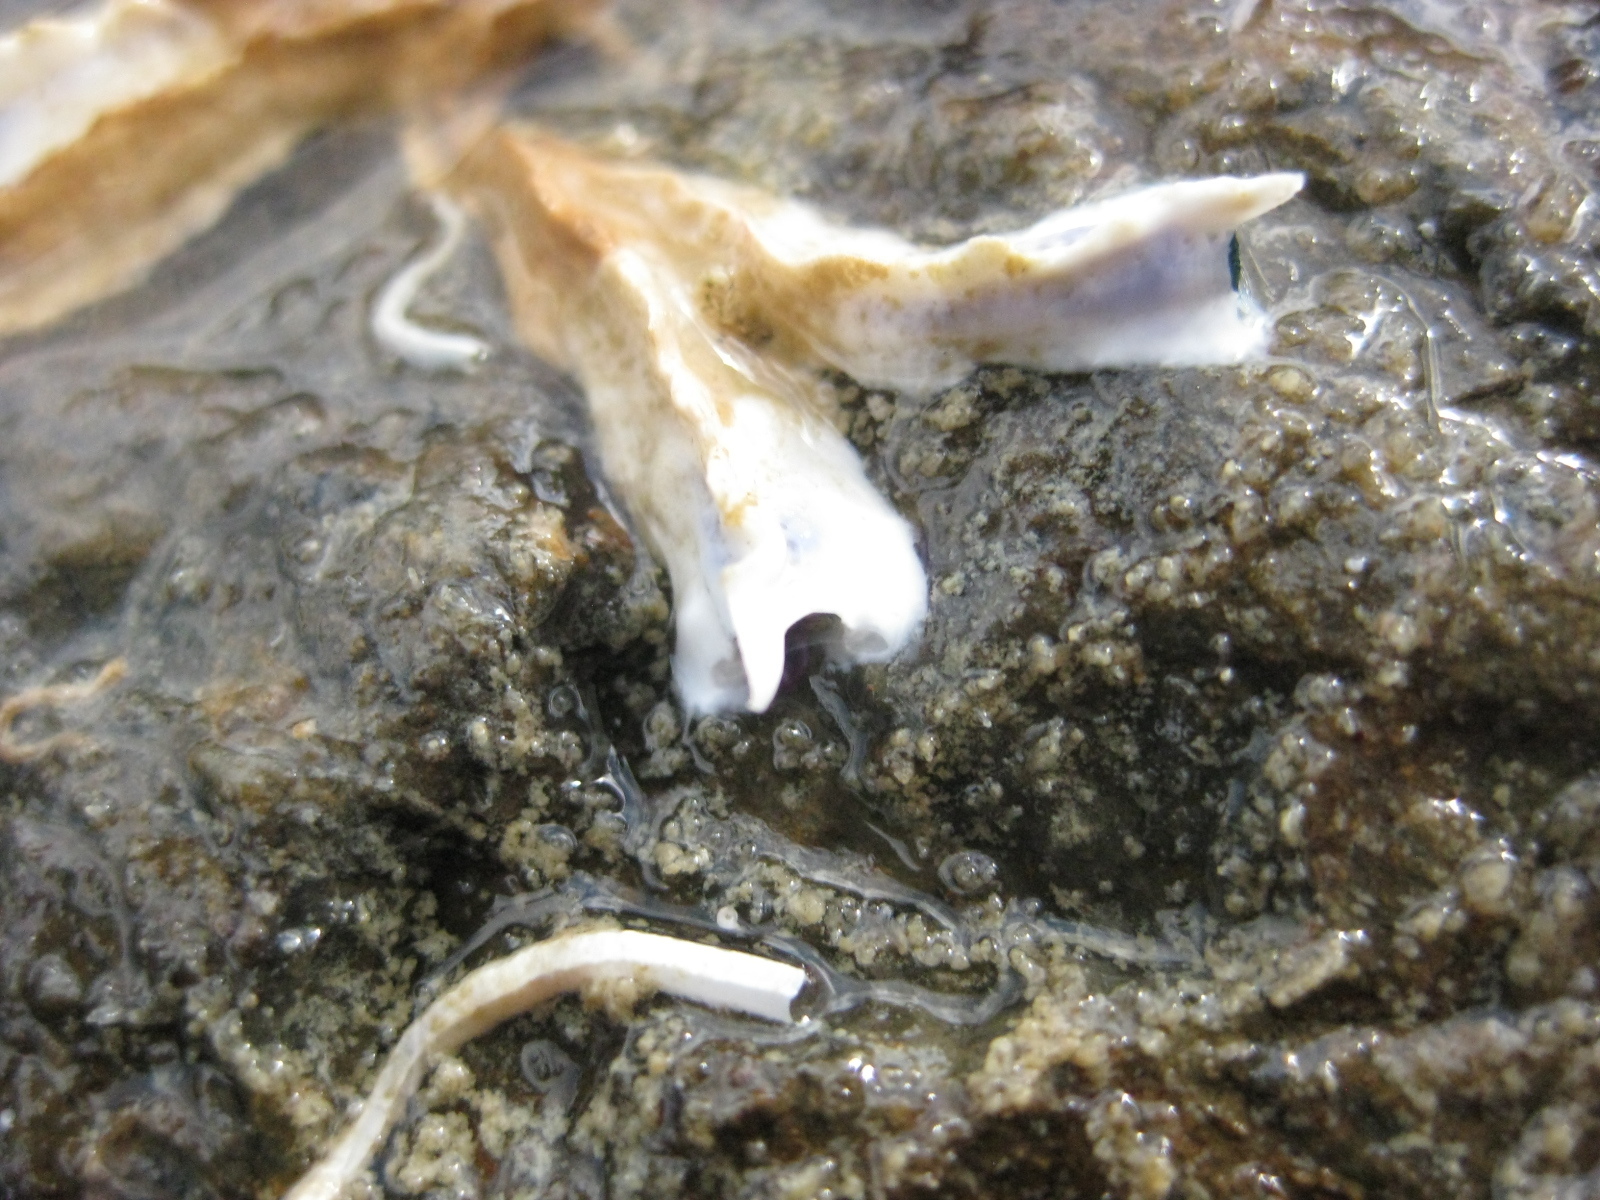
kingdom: Animalia
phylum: Annelida
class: Polychaeta
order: Sabellida
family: Serpulidae
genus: Spirobranchus
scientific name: Spirobranchus cariniferus
